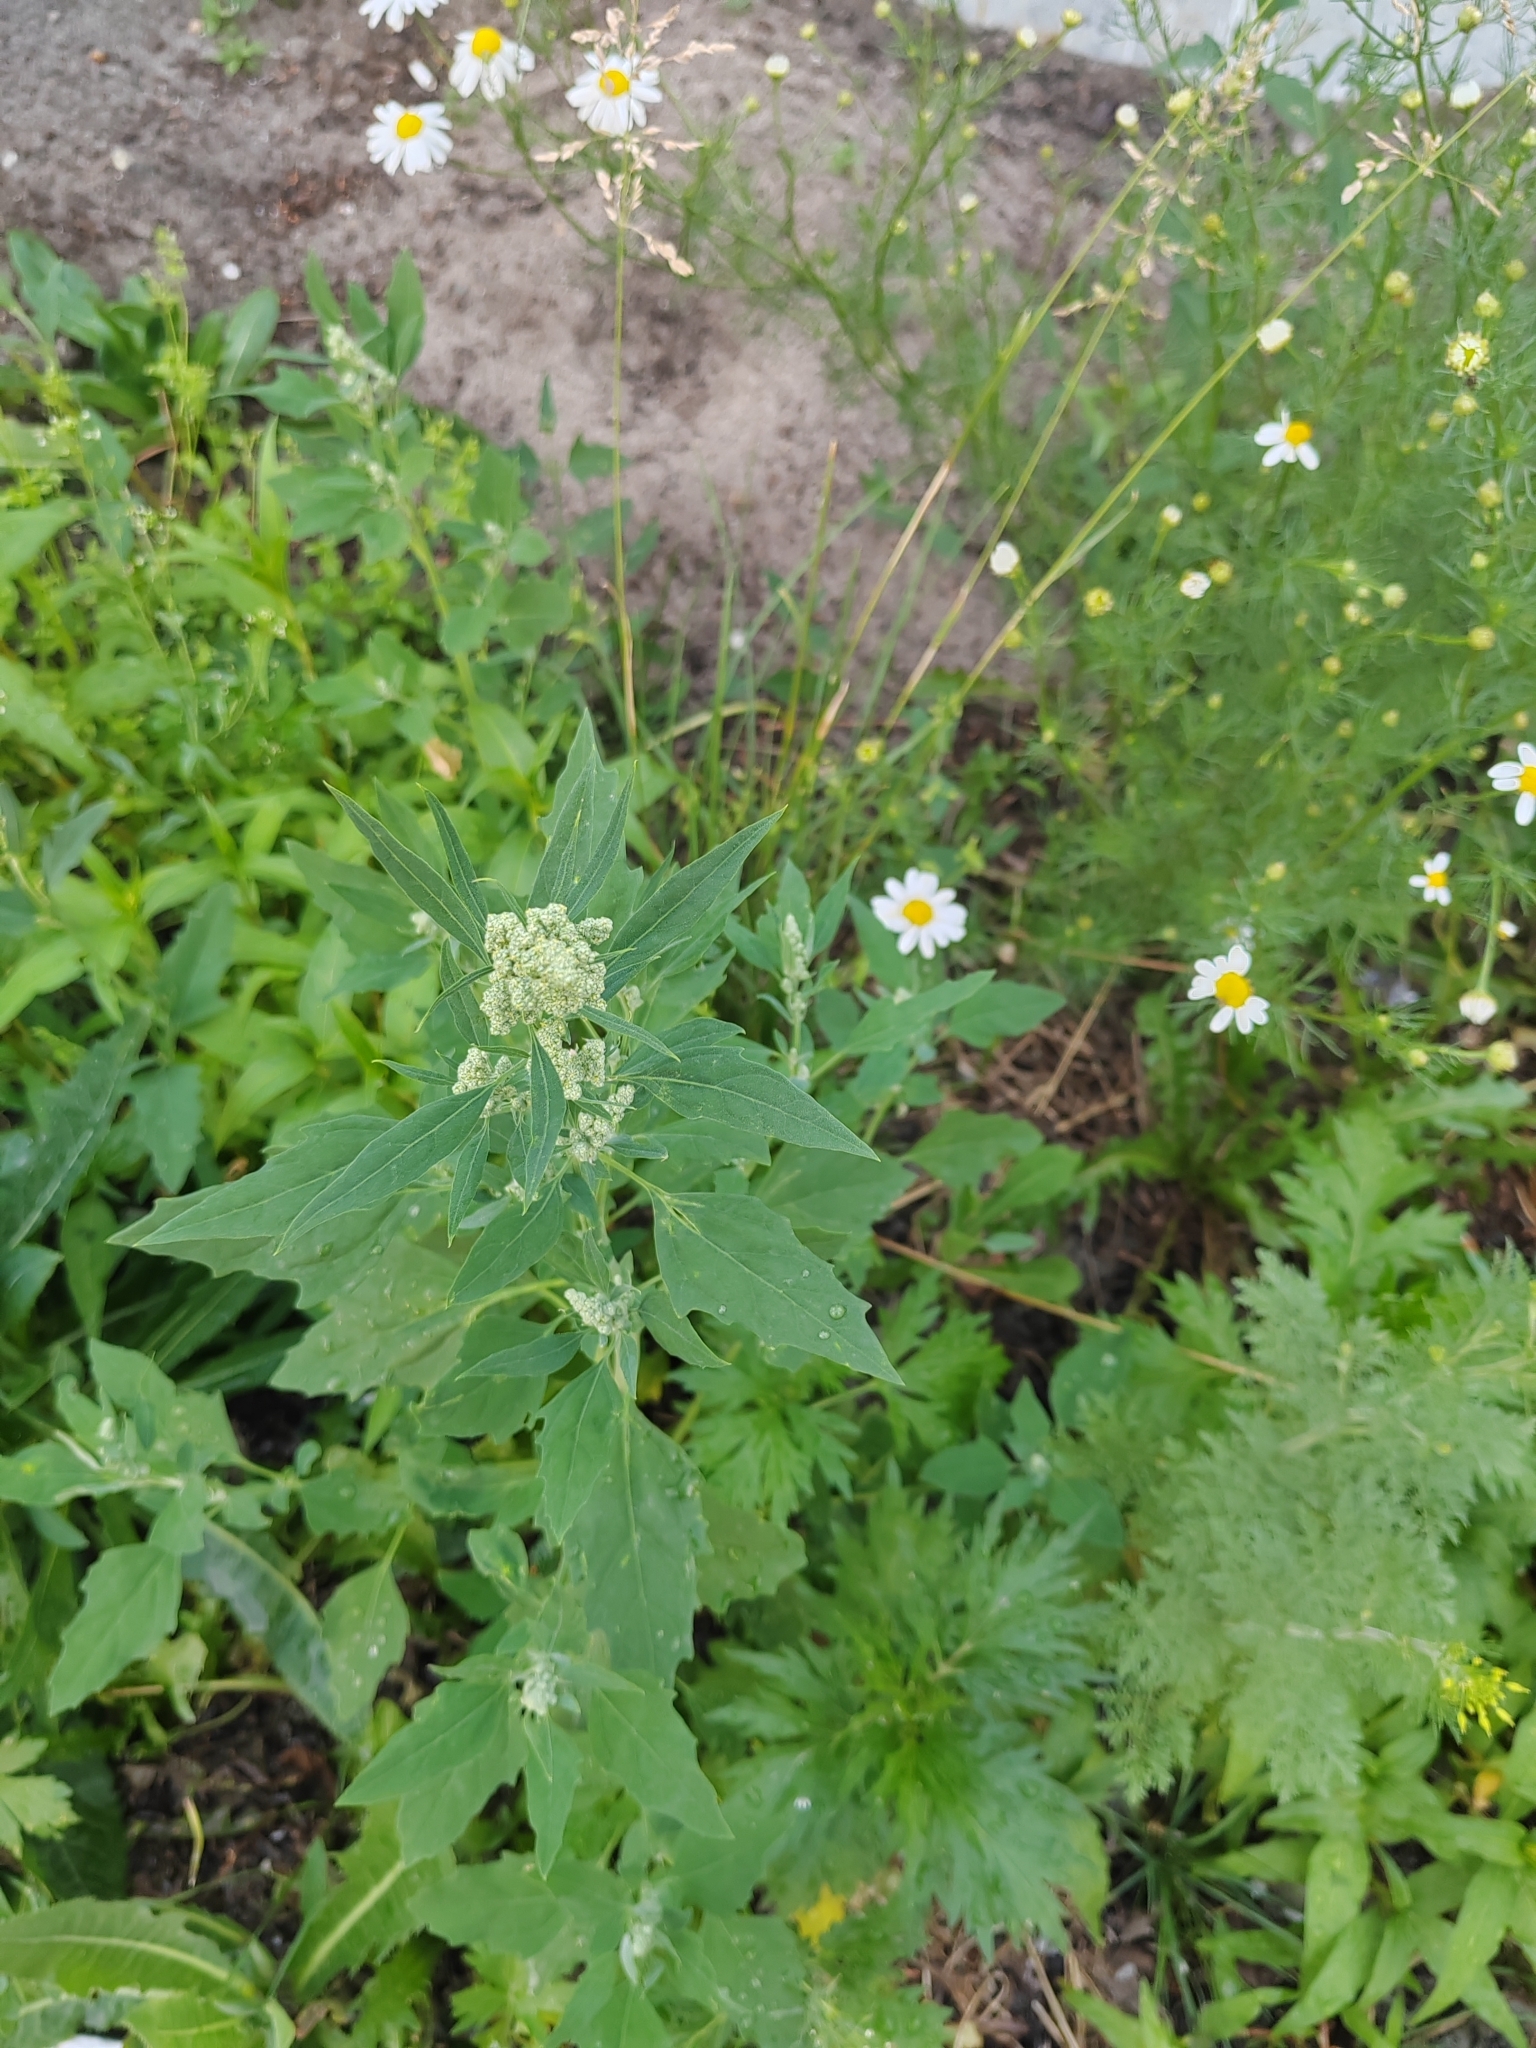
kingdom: Plantae
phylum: Tracheophyta
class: Magnoliopsida
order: Caryophyllales
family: Amaranthaceae
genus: Chenopodium
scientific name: Chenopodium album
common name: Fat-hen
